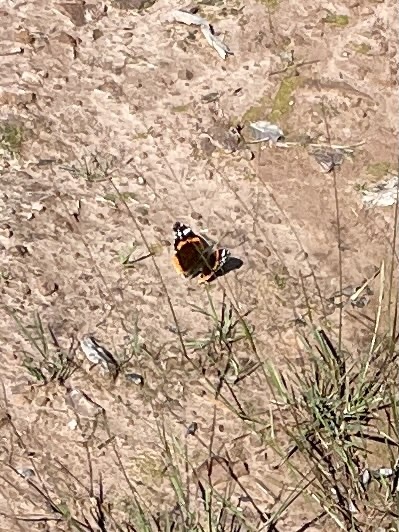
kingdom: Animalia
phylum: Arthropoda
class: Insecta
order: Lepidoptera
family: Nymphalidae
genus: Vanessa
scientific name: Vanessa atalanta
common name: Red admiral
